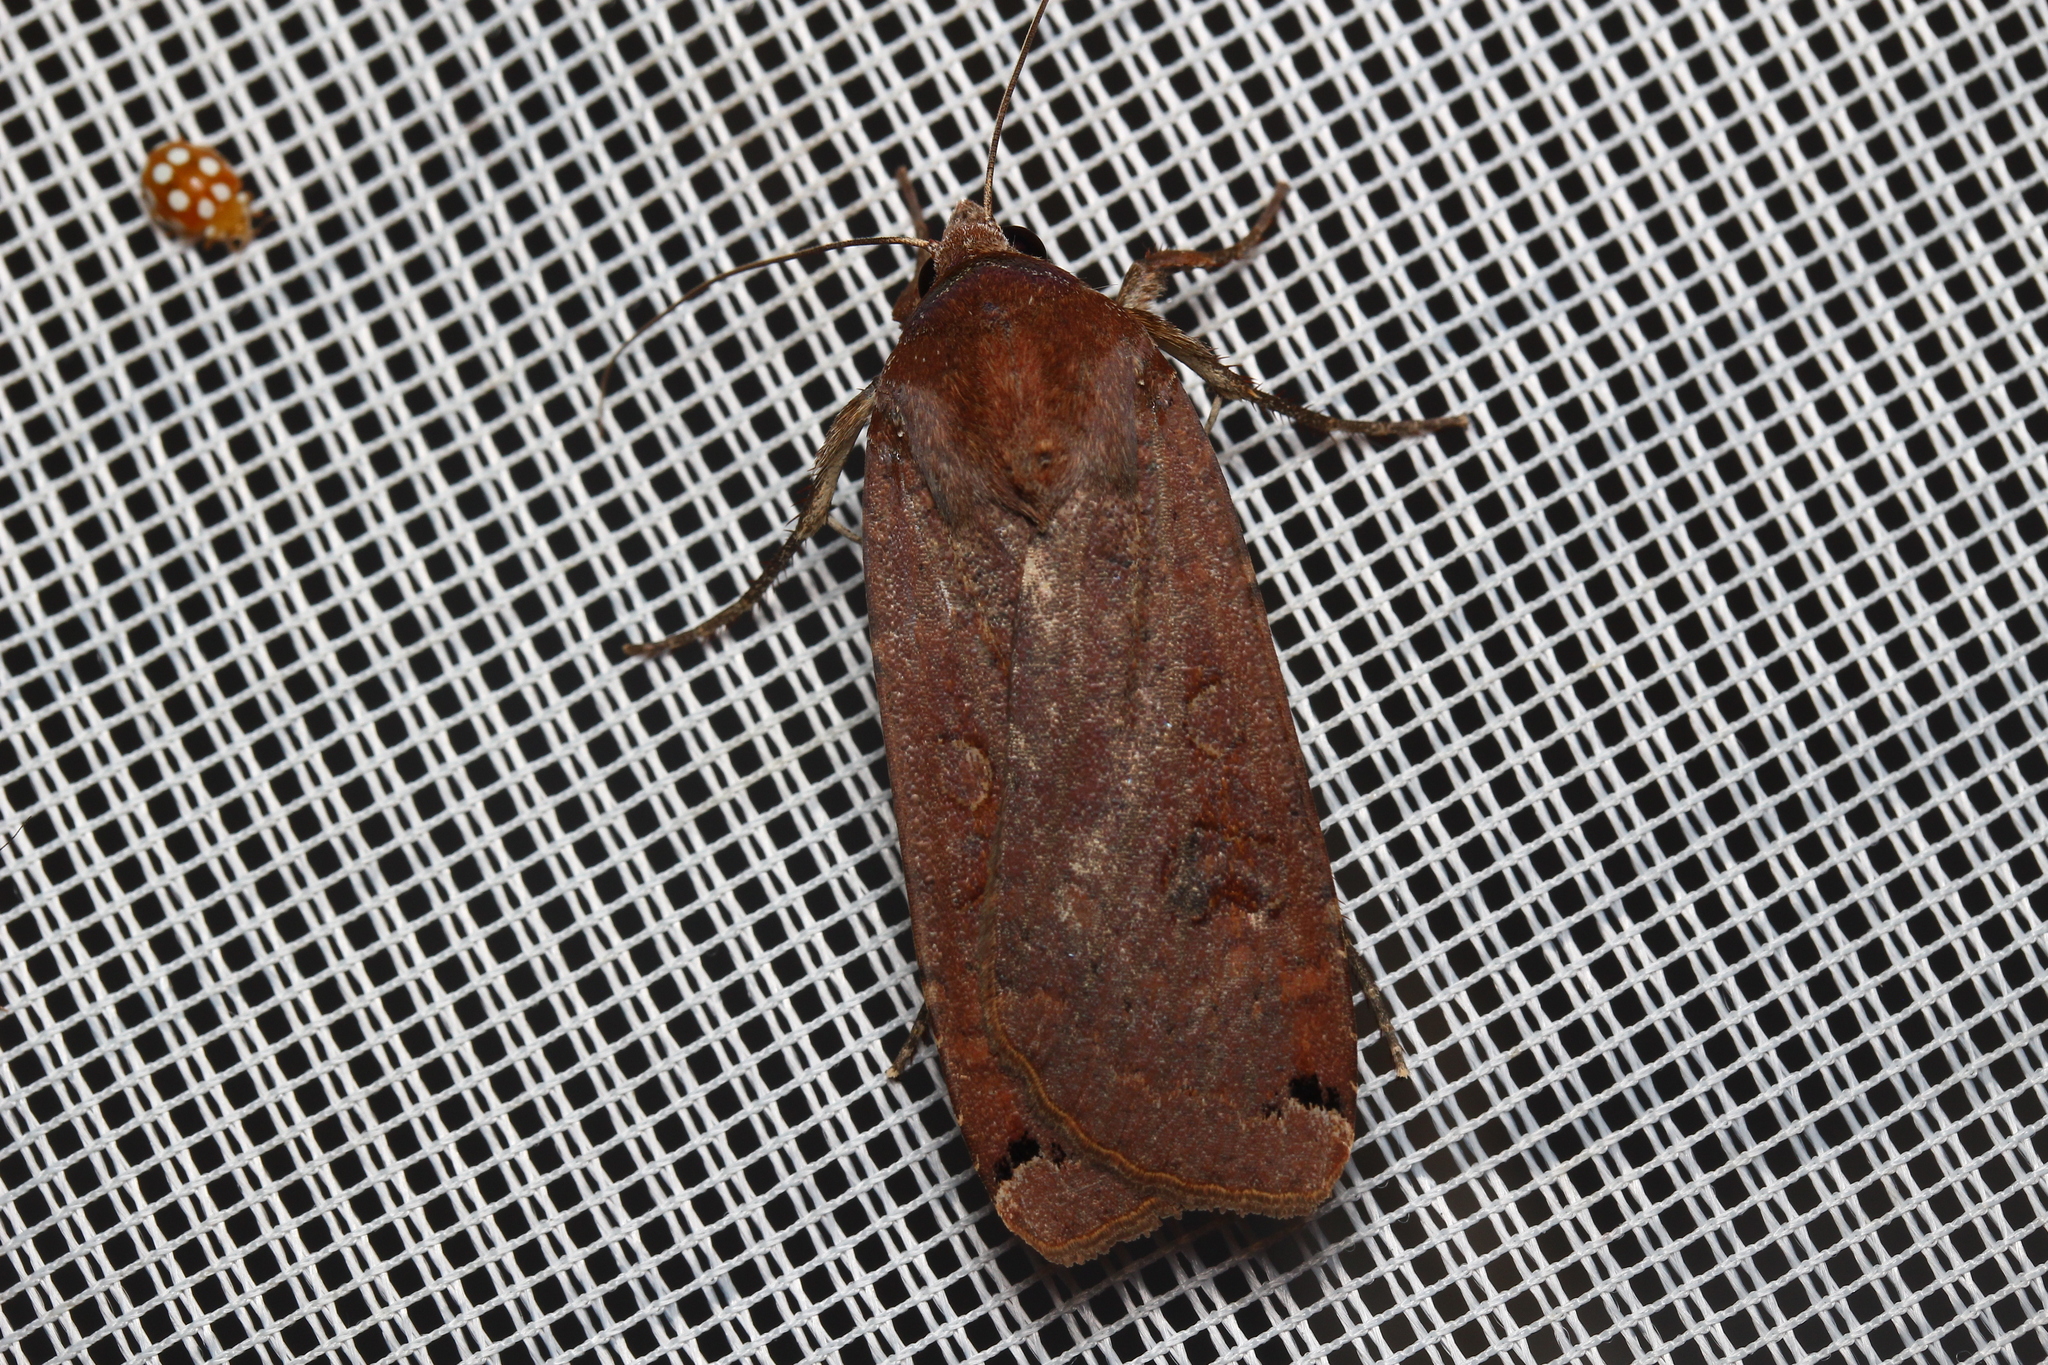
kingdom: Animalia
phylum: Arthropoda
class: Insecta
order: Lepidoptera
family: Noctuidae
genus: Noctua
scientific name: Noctua pronuba
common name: Large yellow underwing
